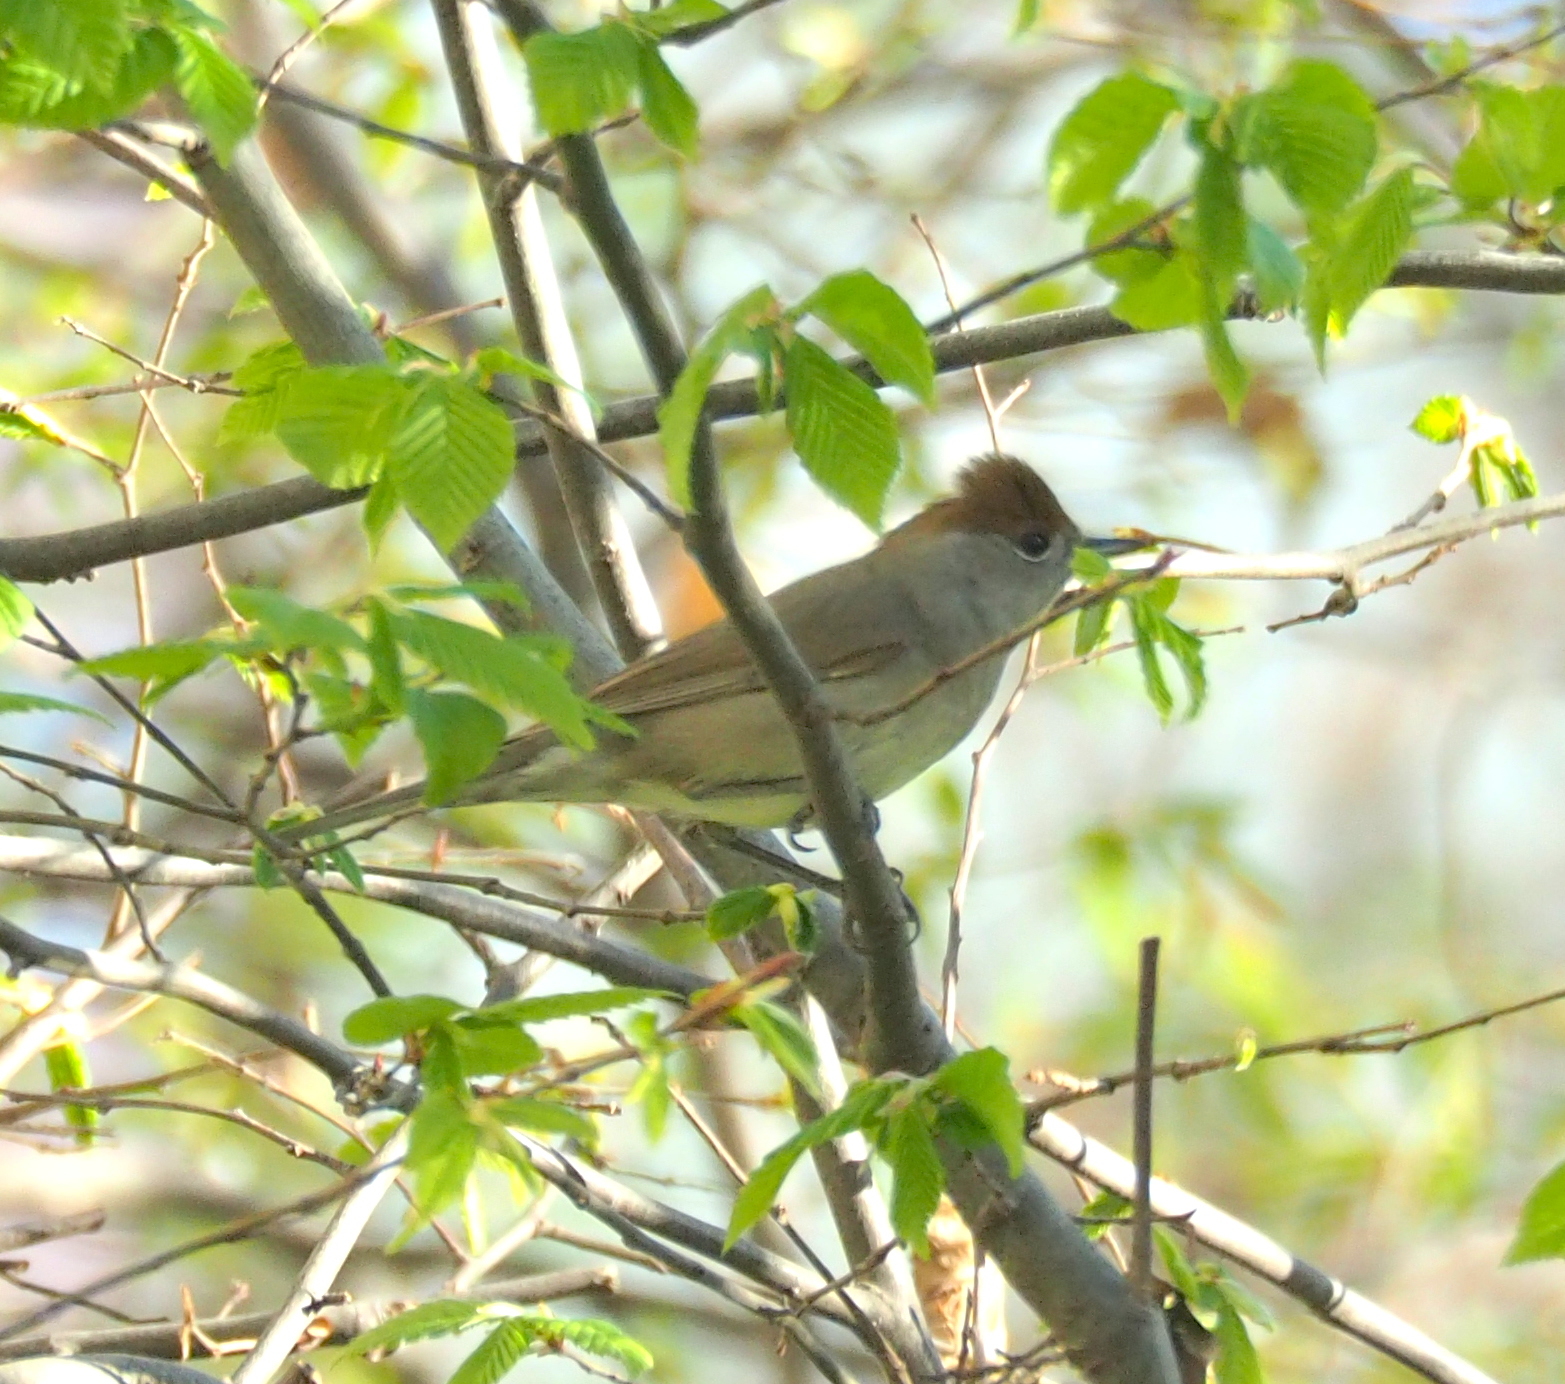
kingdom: Animalia
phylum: Chordata
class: Aves
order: Passeriformes
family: Sylviidae
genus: Sylvia
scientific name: Sylvia atricapilla
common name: Eurasian blackcap
